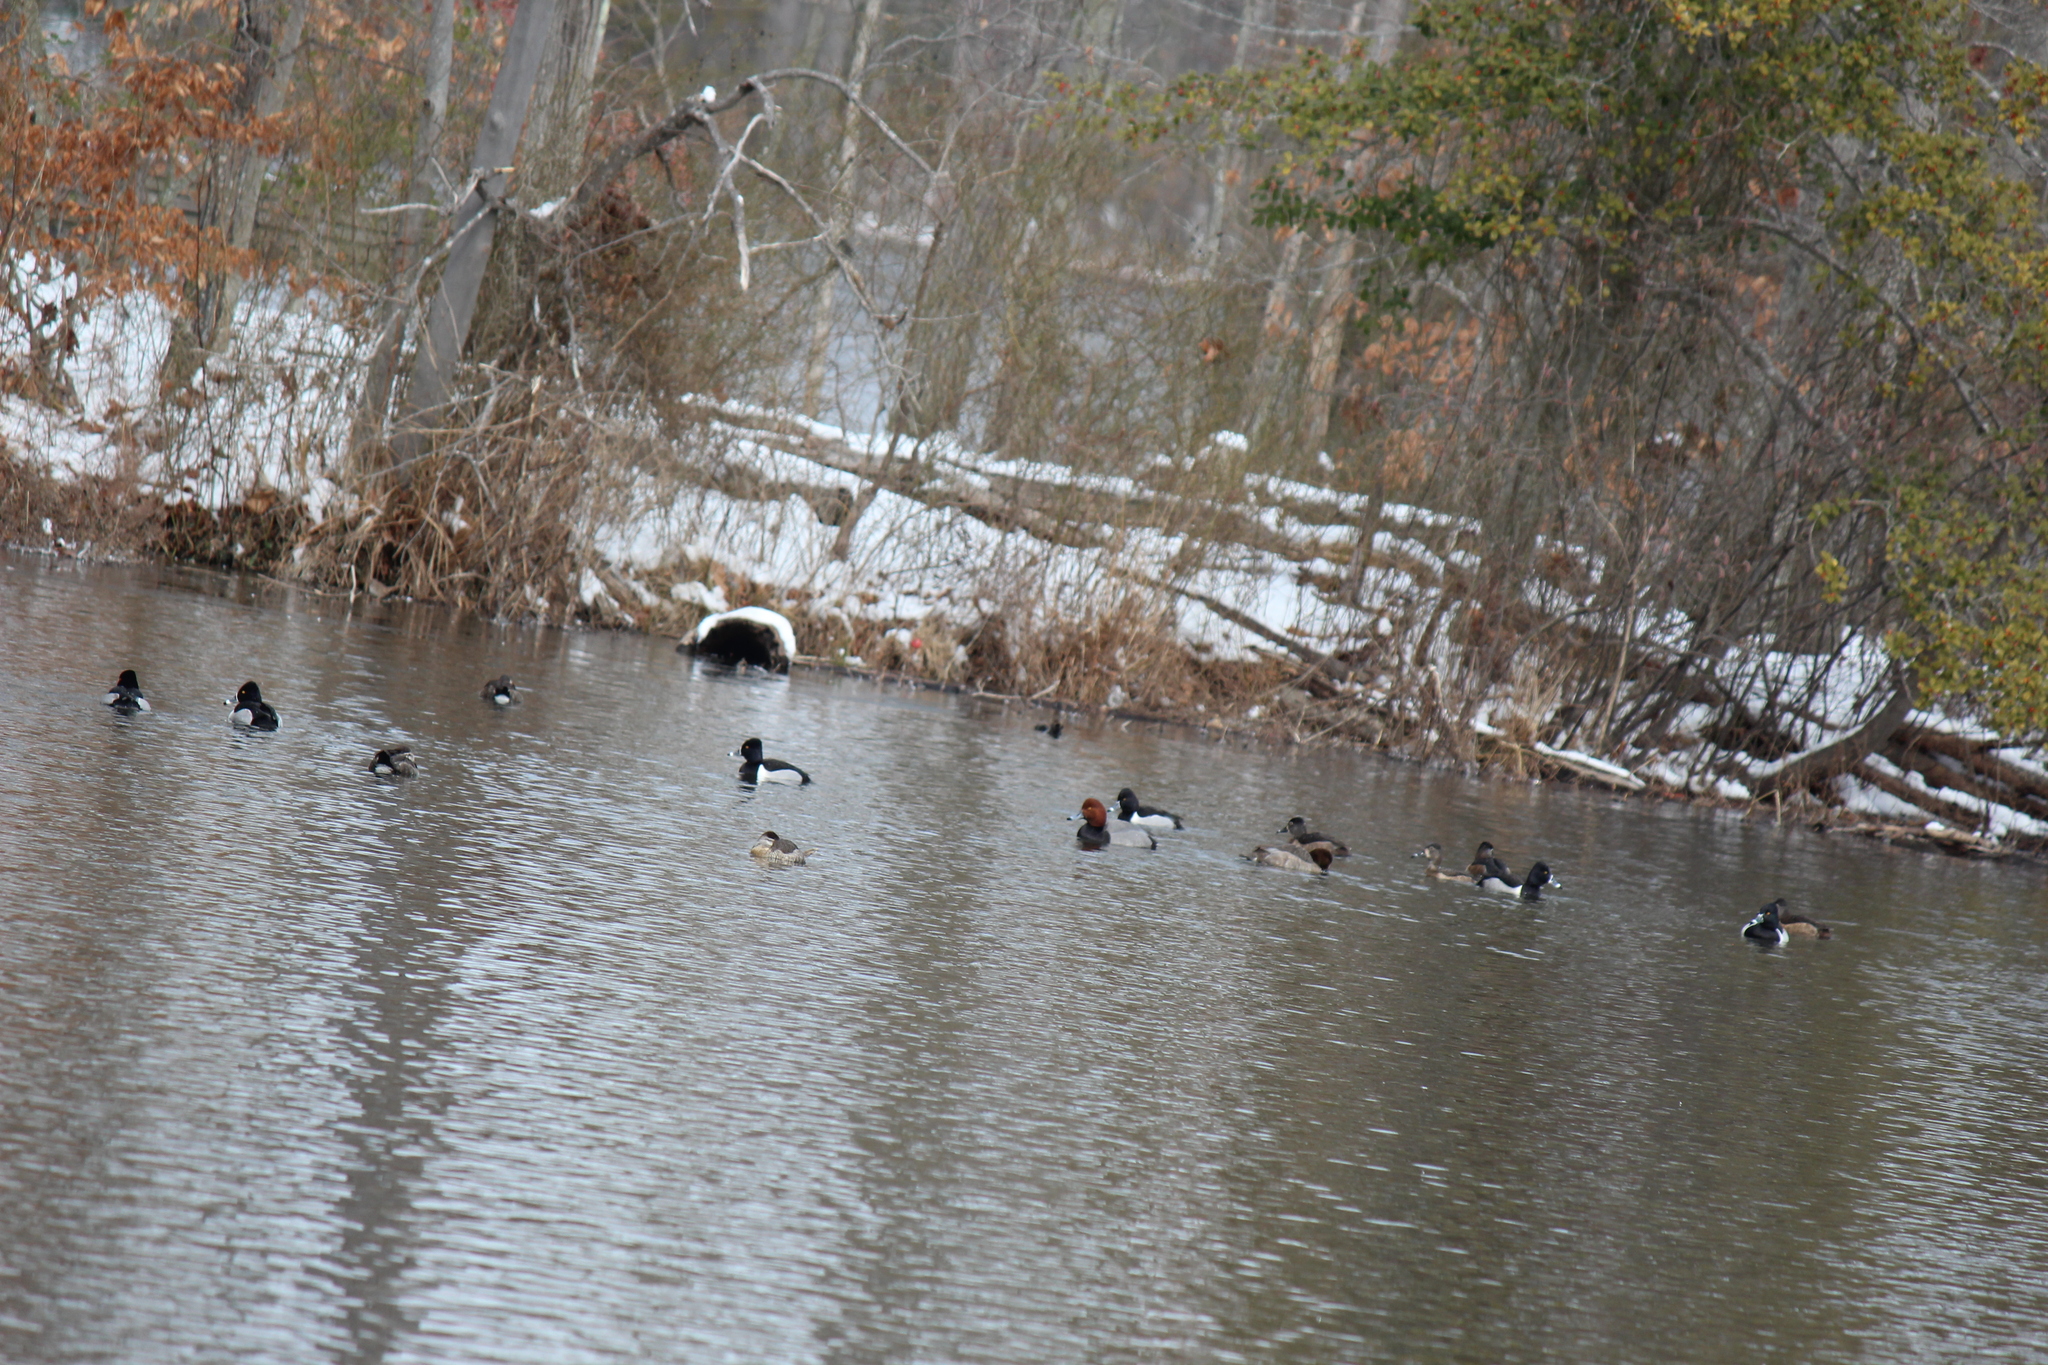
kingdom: Animalia
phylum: Chordata
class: Aves
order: Anseriformes
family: Anatidae
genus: Aythya
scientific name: Aythya americana
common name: Redhead
